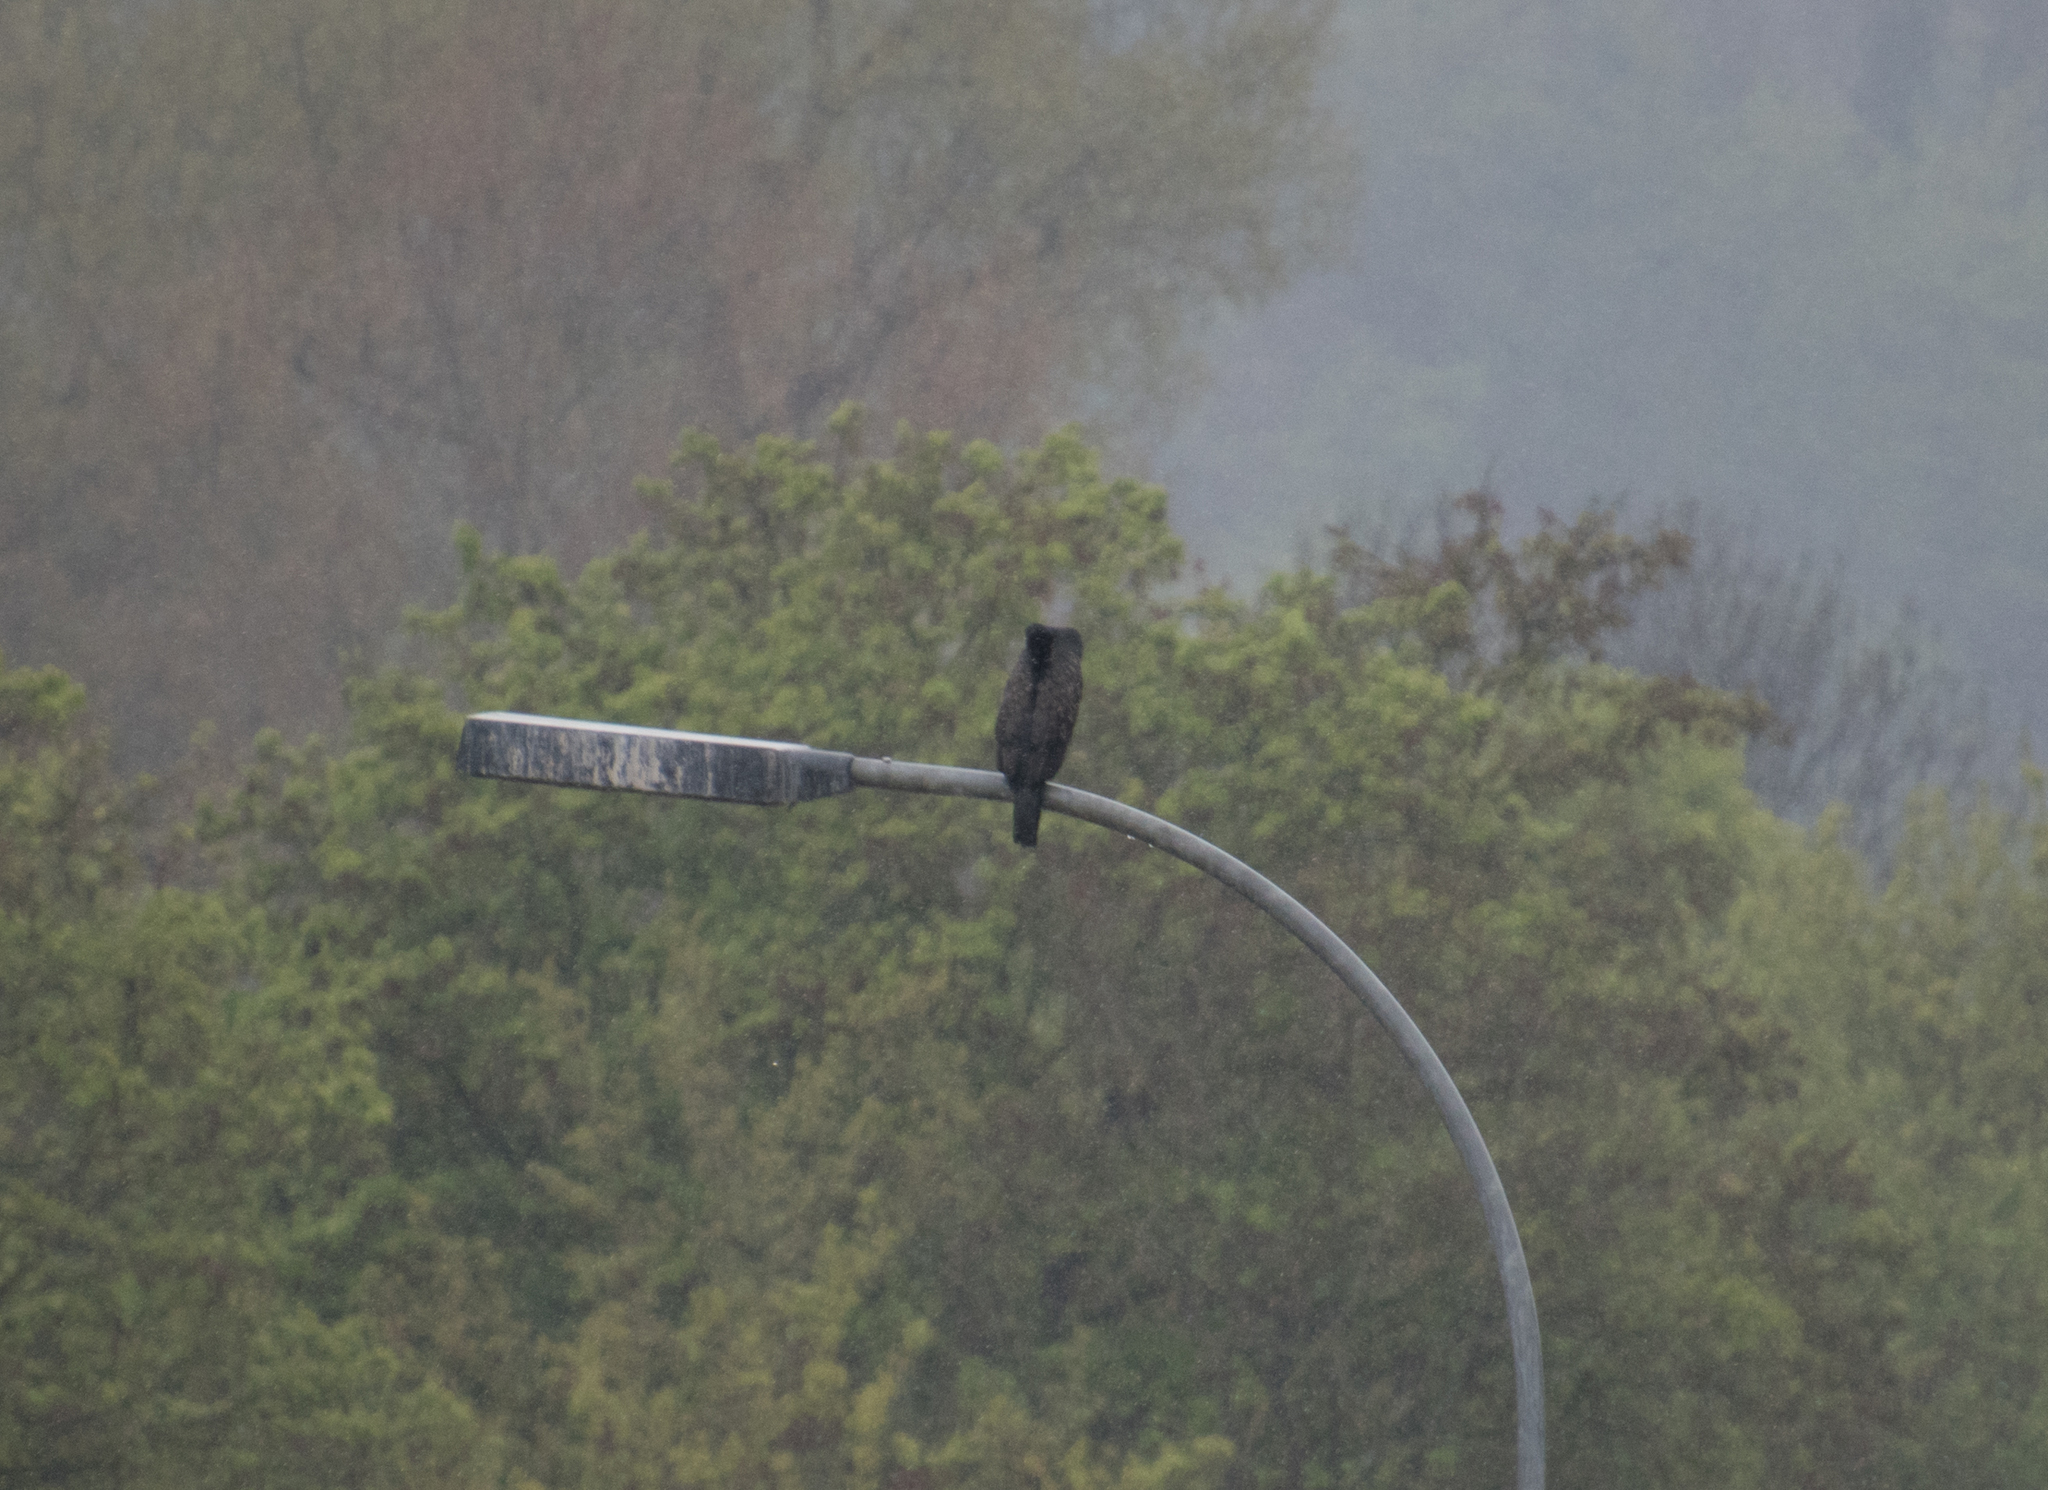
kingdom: Animalia
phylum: Chordata
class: Aves
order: Suliformes
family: Phalacrocoracidae
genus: Phalacrocorax
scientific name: Phalacrocorax carbo
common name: Great cormorant
